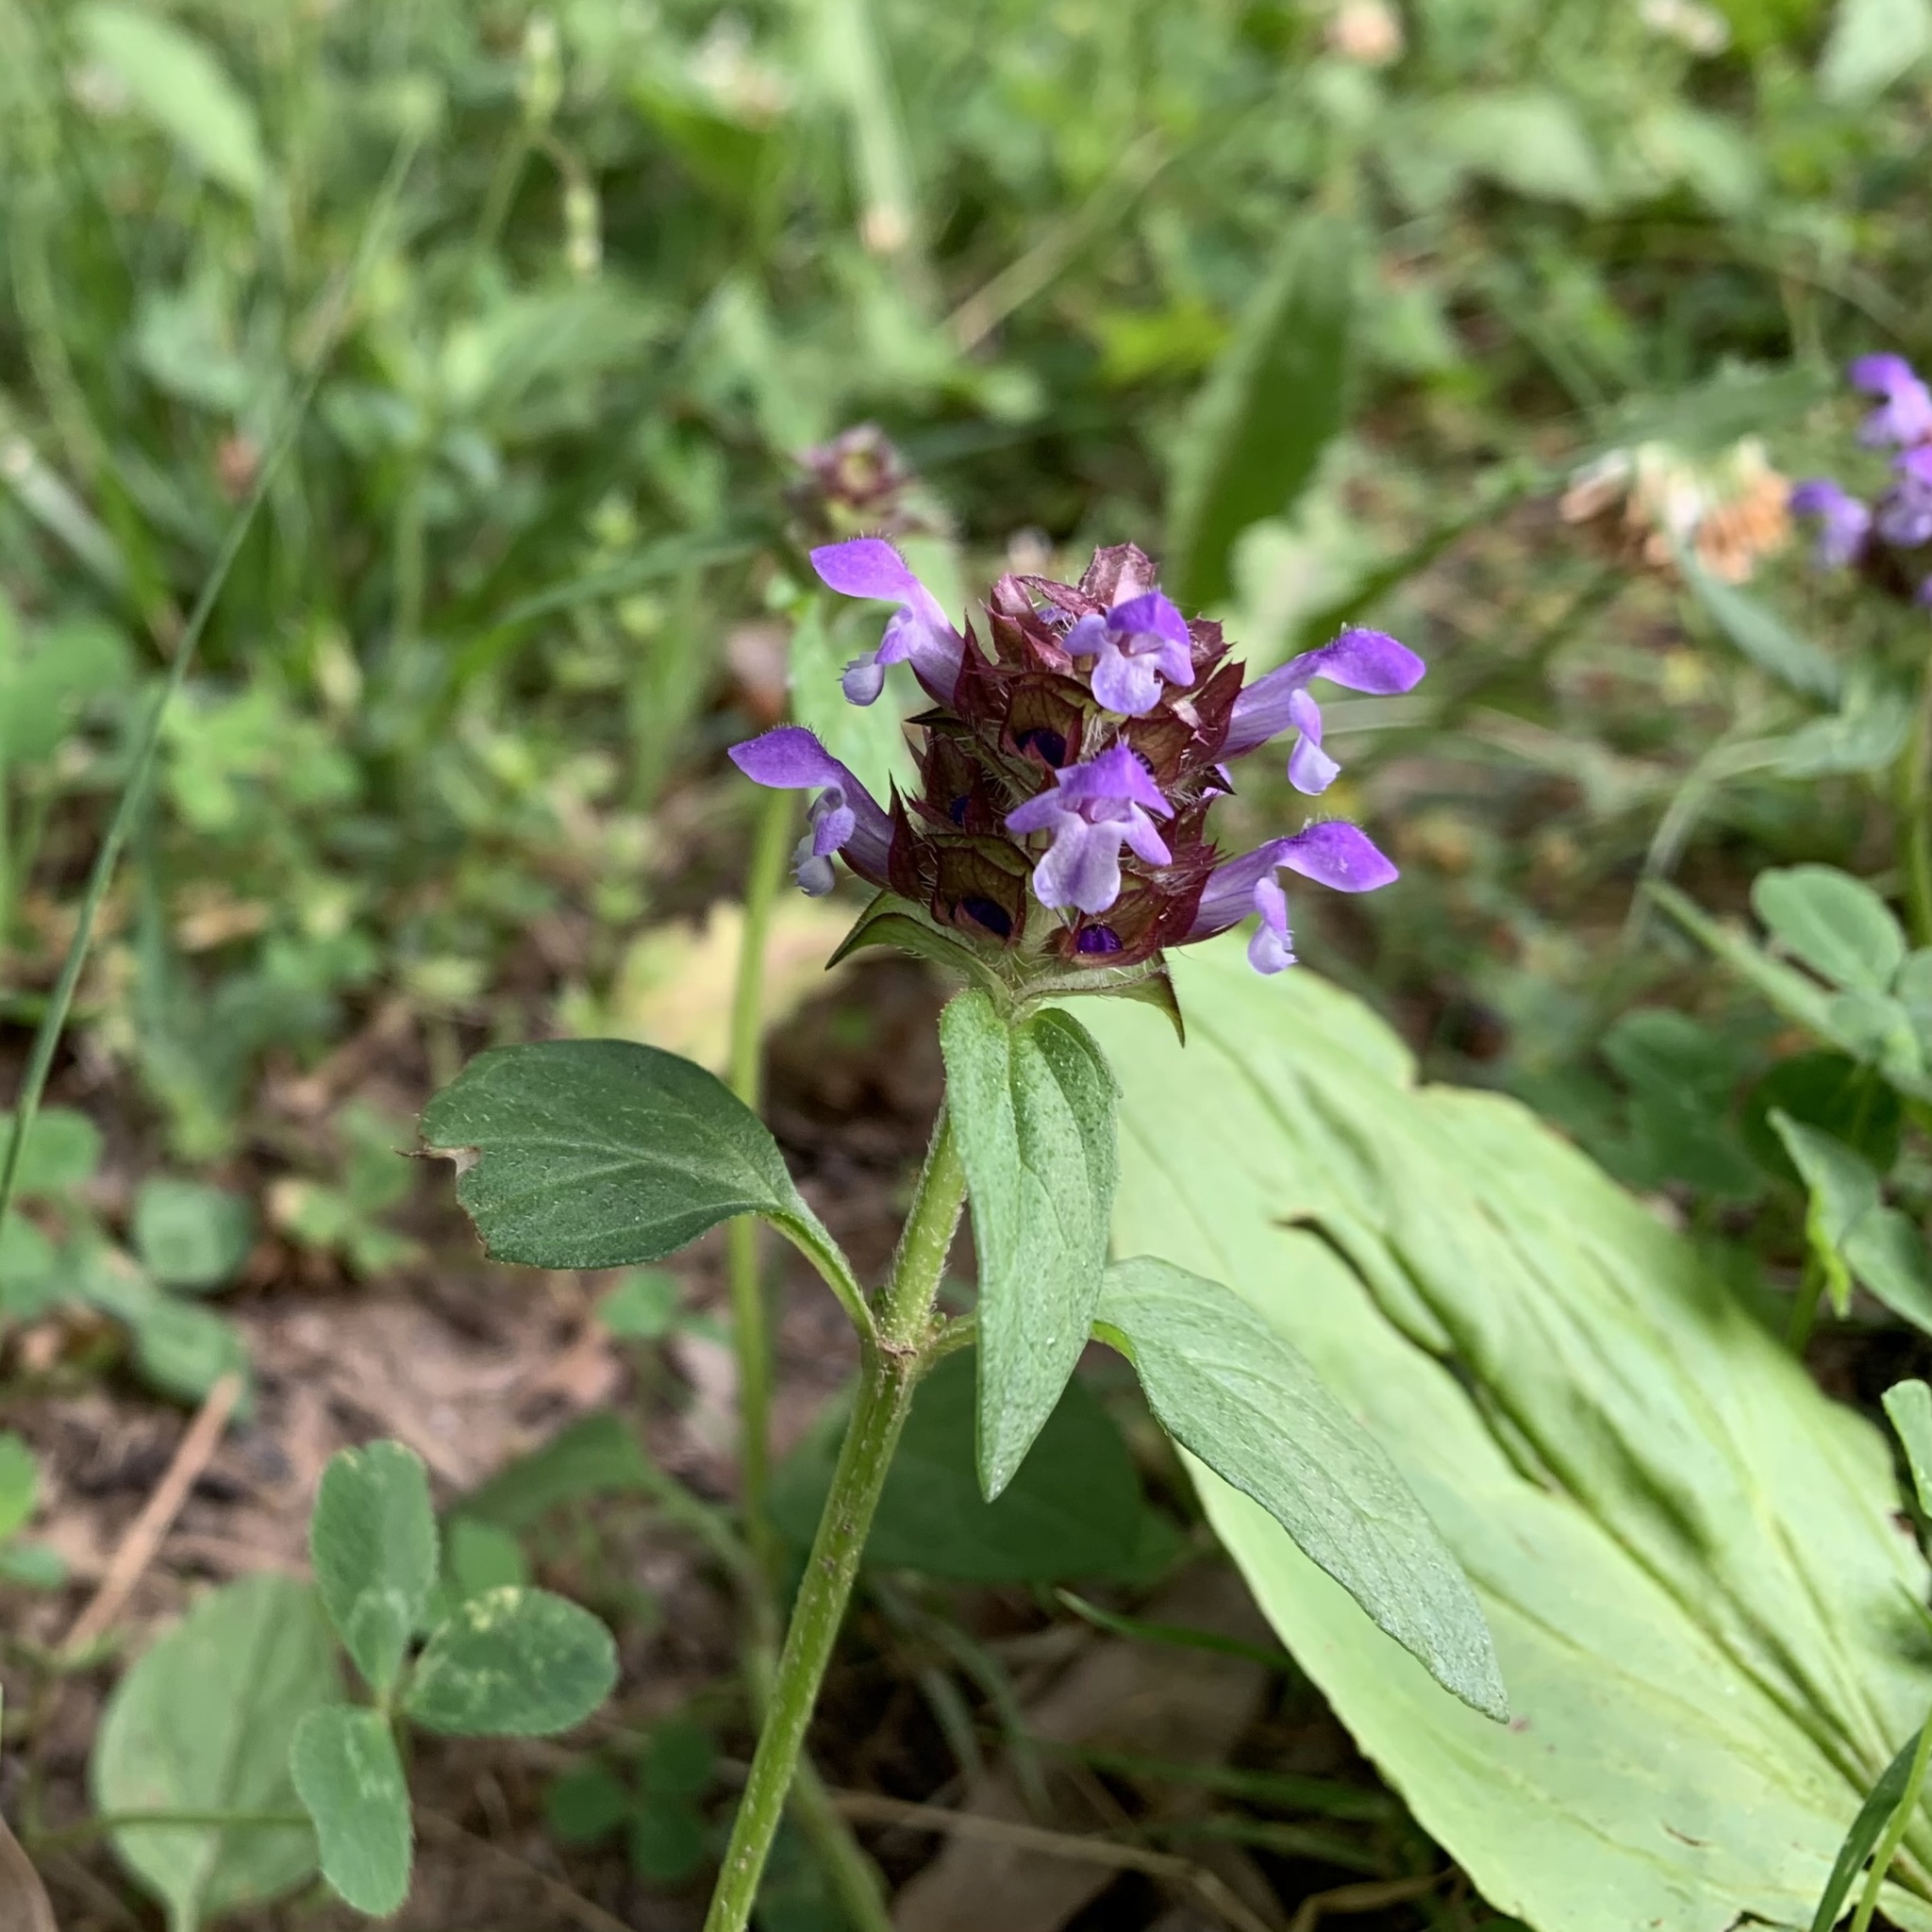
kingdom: Plantae
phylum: Tracheophyta
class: Magnoliopsida
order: Lamiales
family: Lamiaceae
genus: Prunella
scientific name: Prunella vulgaris
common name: Heal-all
